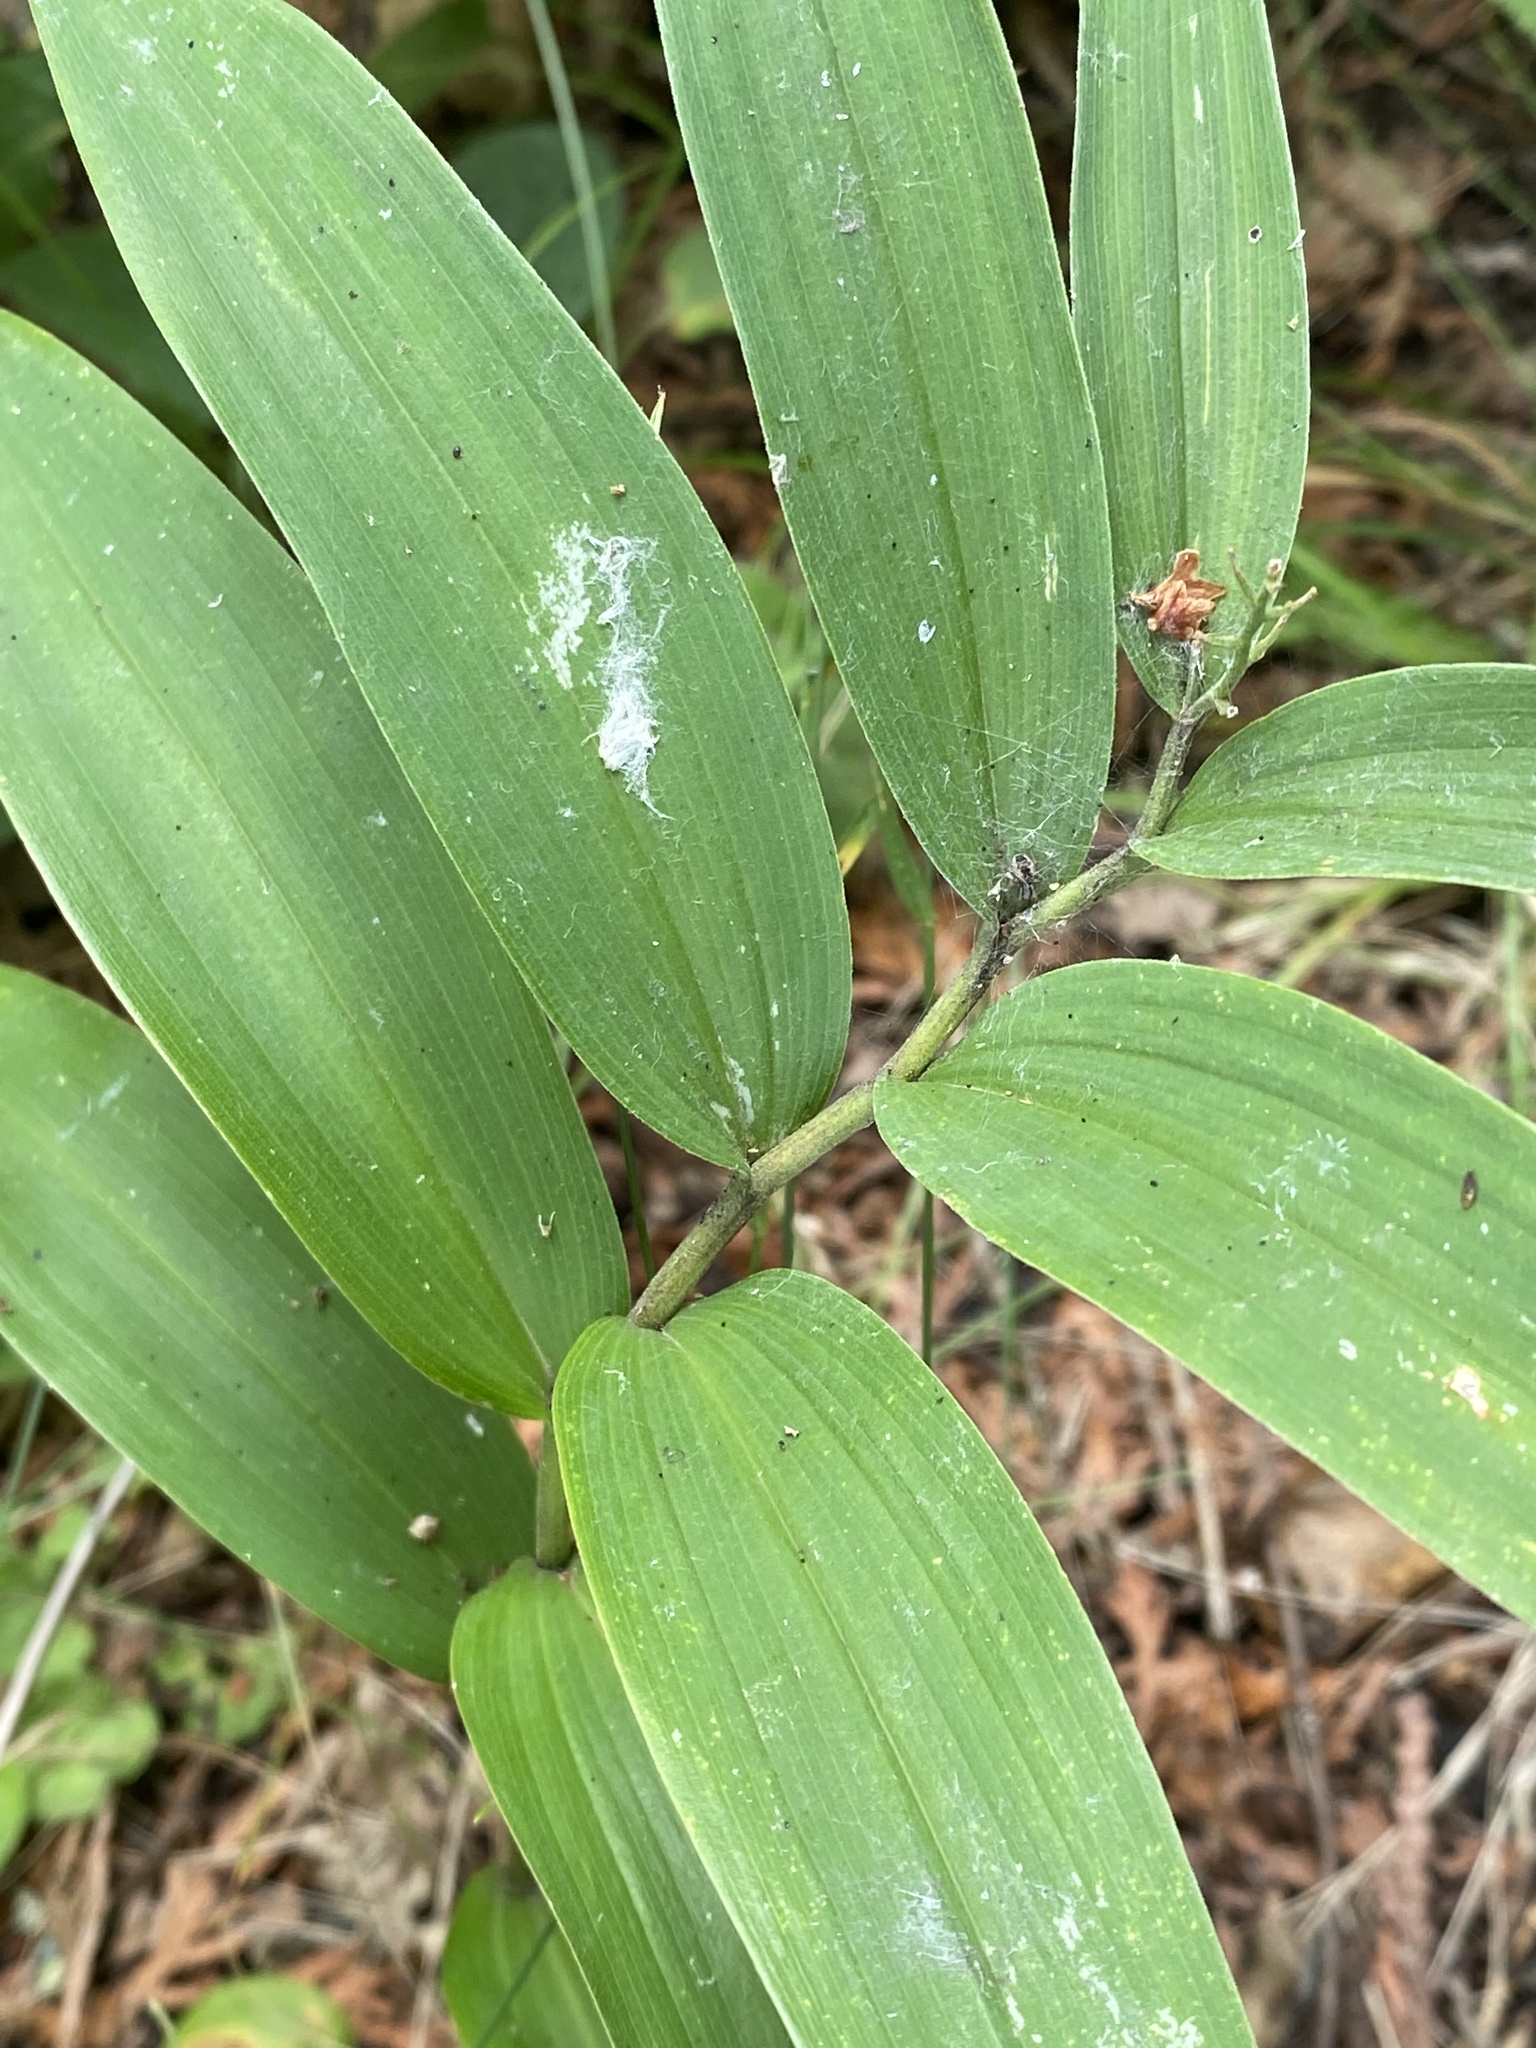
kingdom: Plantae
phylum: Tracheophyta
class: Liliopsida
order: Asparagales
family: Asparagaceae
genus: Maianthemum
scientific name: Maianthemum stellatum
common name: Little false solomon's seal
